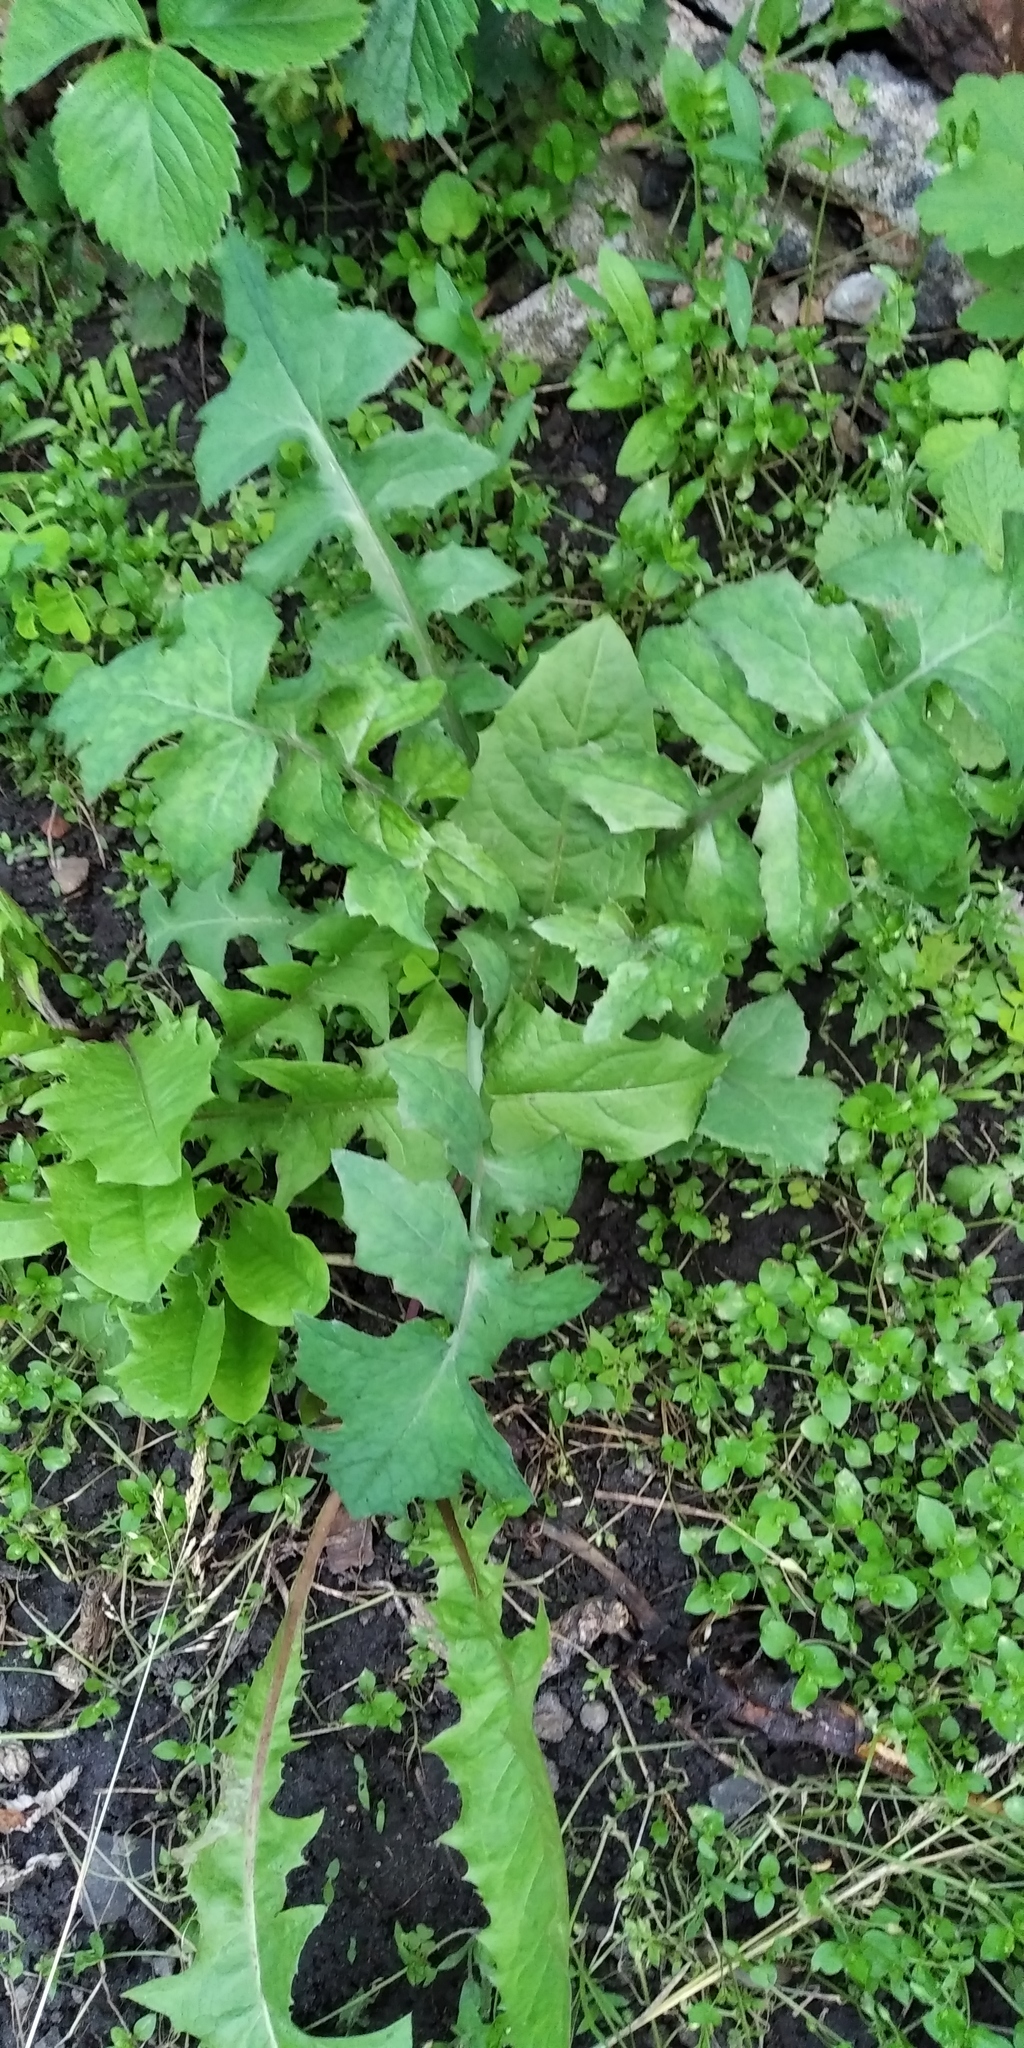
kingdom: Plantae
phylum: Tracheophyta
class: Magnoliopsida
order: Asterales
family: Asteraceae
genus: Sonchus
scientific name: Sonchus oleraceus
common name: Common sowthistle
